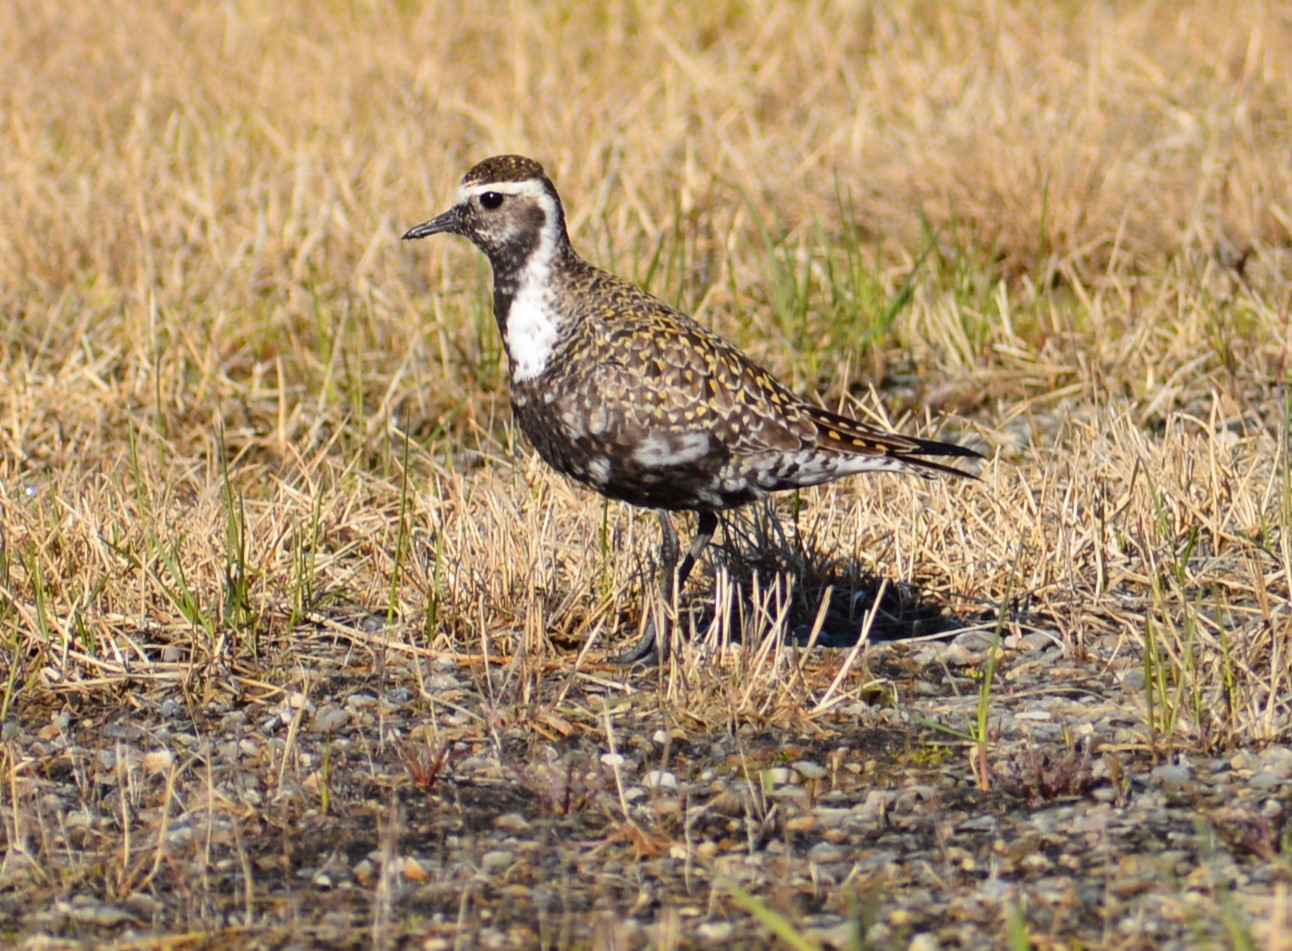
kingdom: Animalia
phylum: Chordata
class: Aves
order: Charadriiformes
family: Charadriidae
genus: Pluvialis
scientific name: Pluvialis dominica
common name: American golden plover
